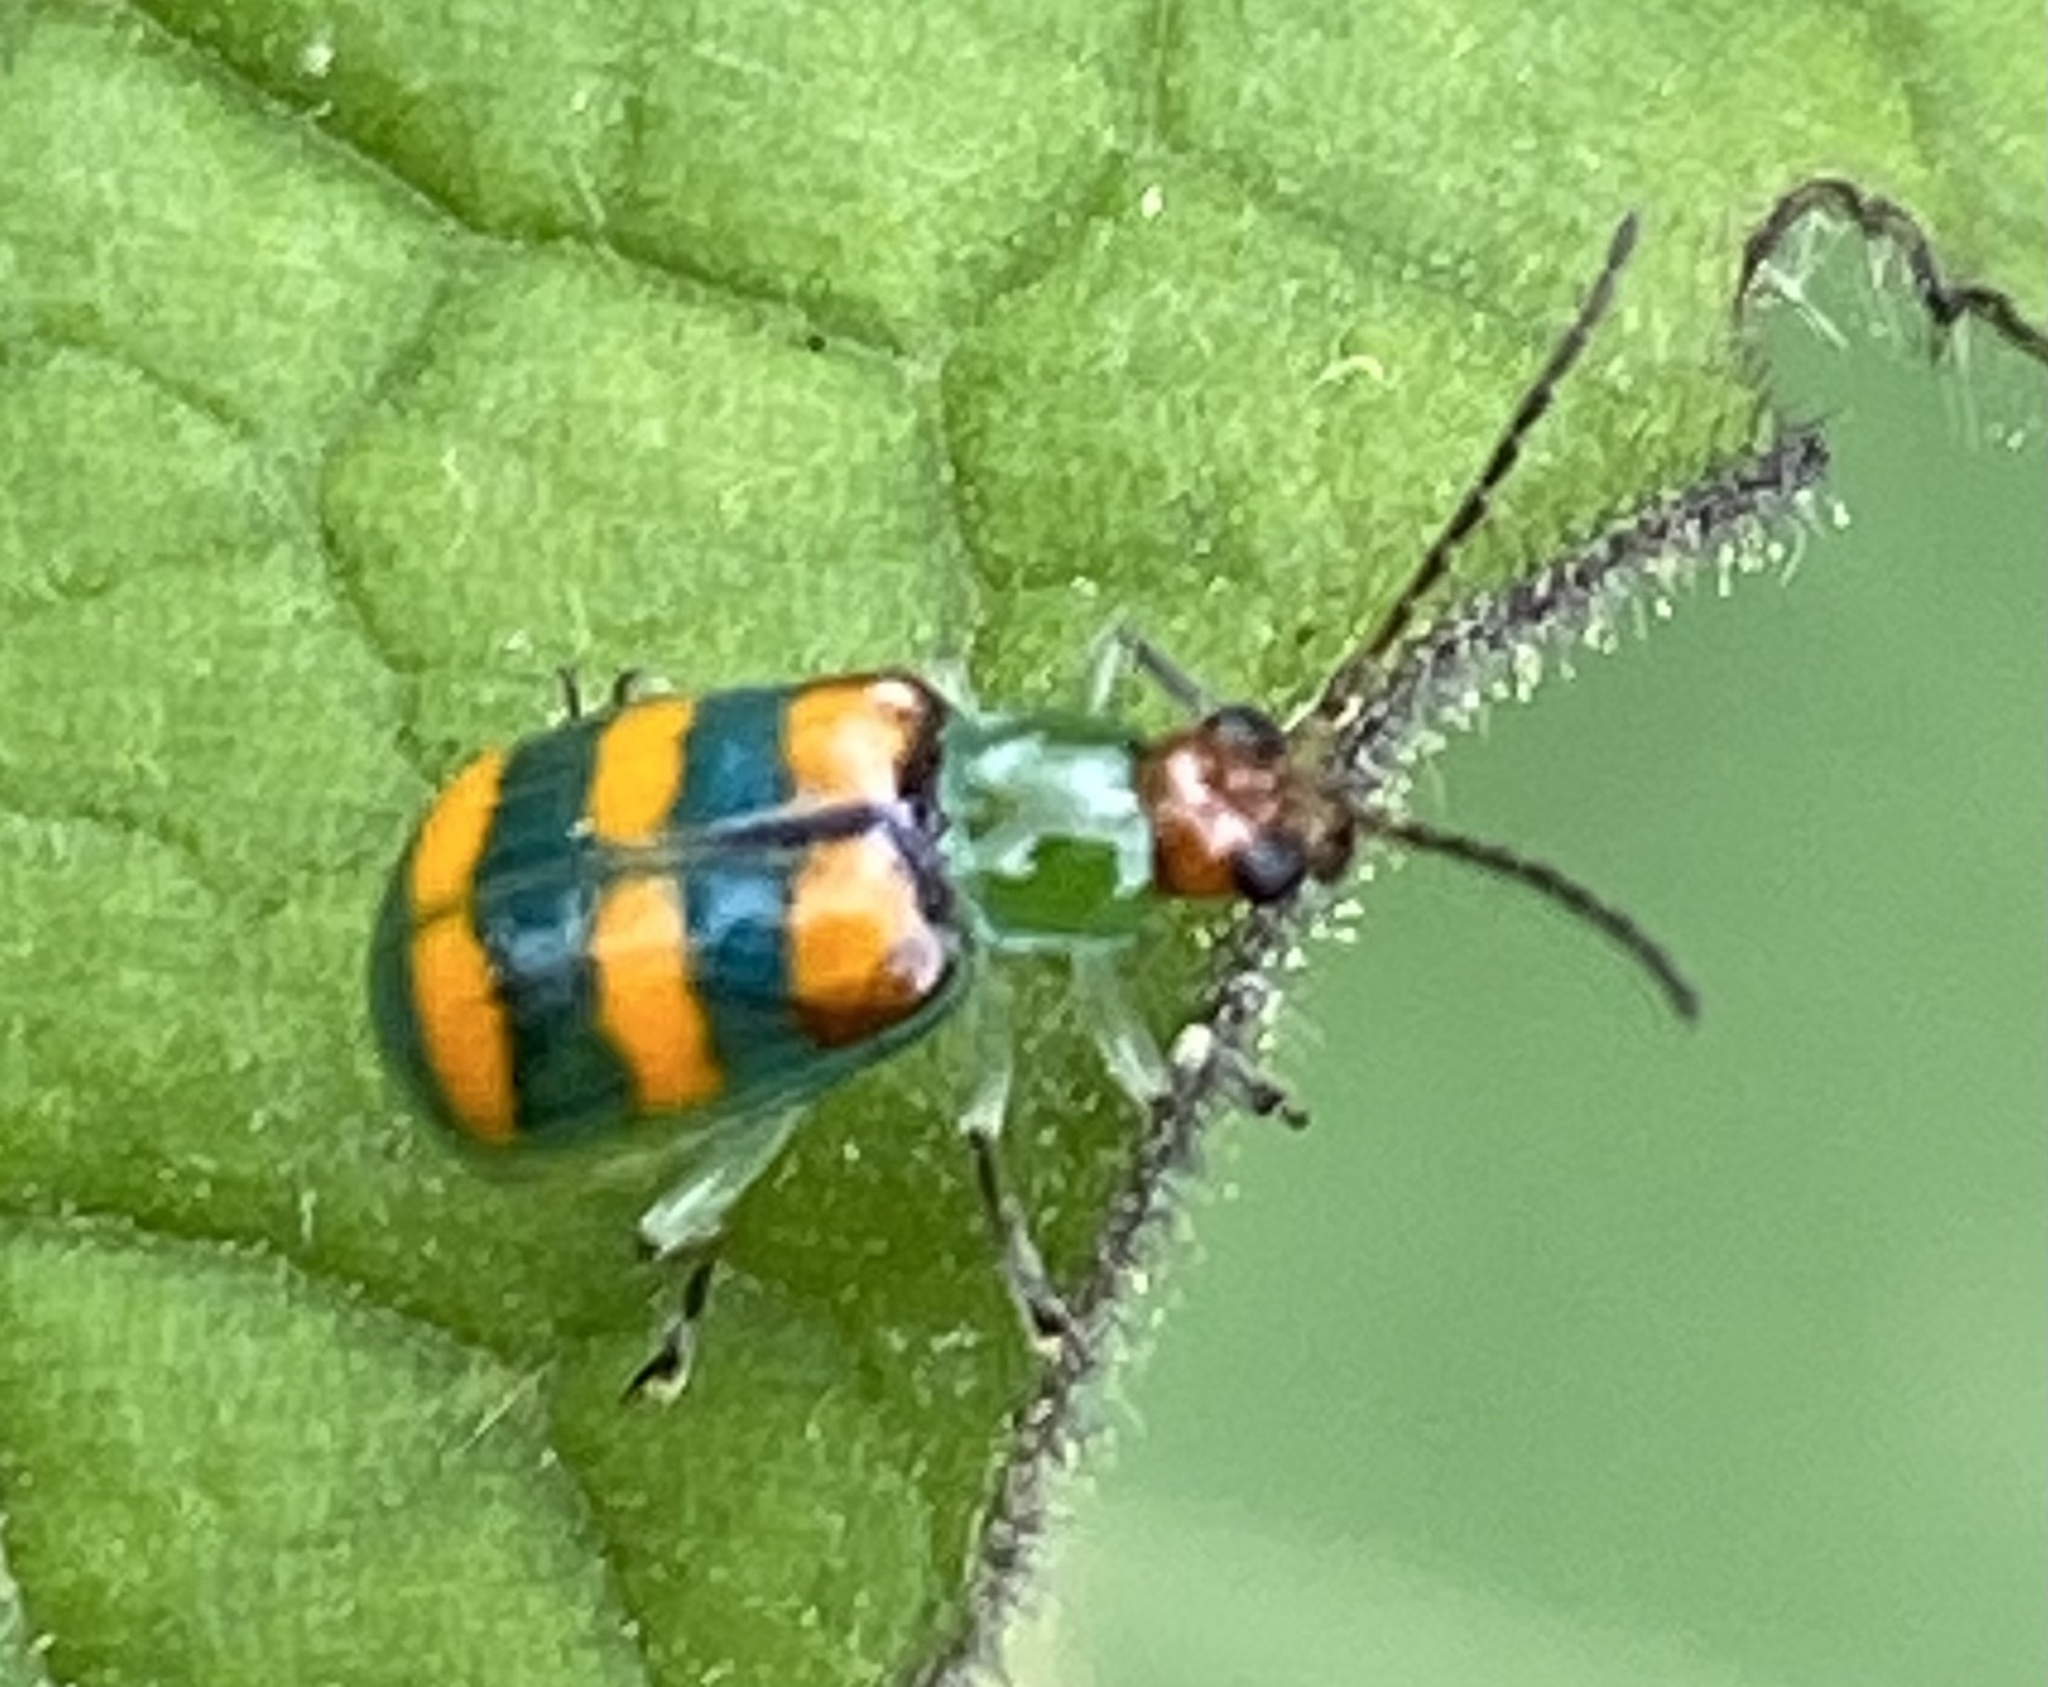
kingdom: Animalia
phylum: Arthropoda
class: Insecta
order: Coleoptera
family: Chrysomelidae
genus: Diabrotica
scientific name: Diabrotica speciosa
